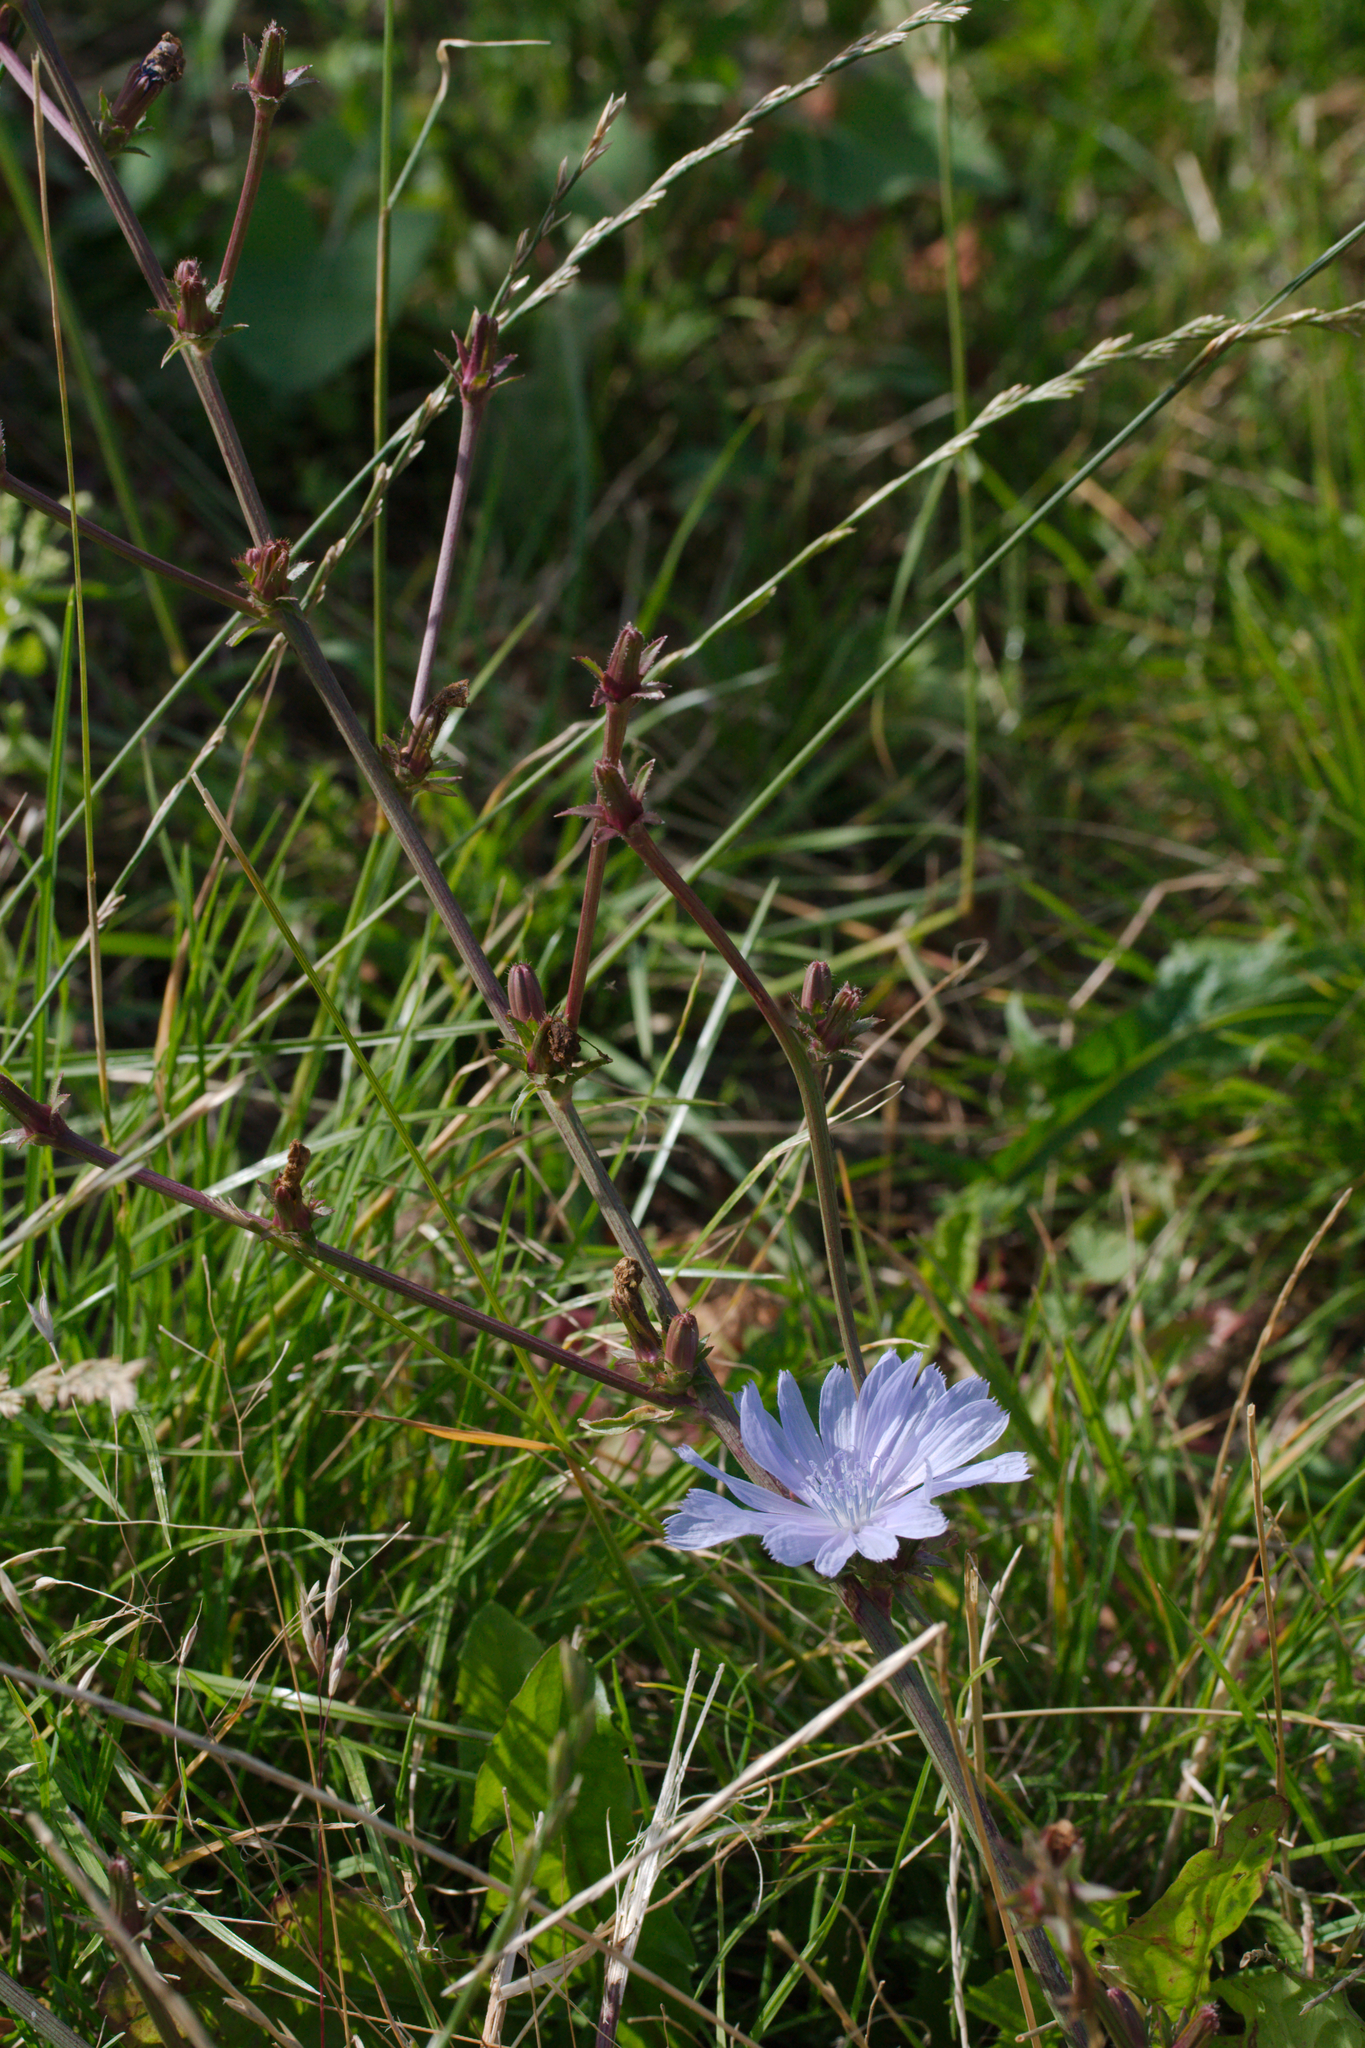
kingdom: Plantae
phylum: Tracheophyta
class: Magnoliopsida
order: Asterales
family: Asteraceae
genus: Cichorium
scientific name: Cichorium intybus
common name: Chicory
